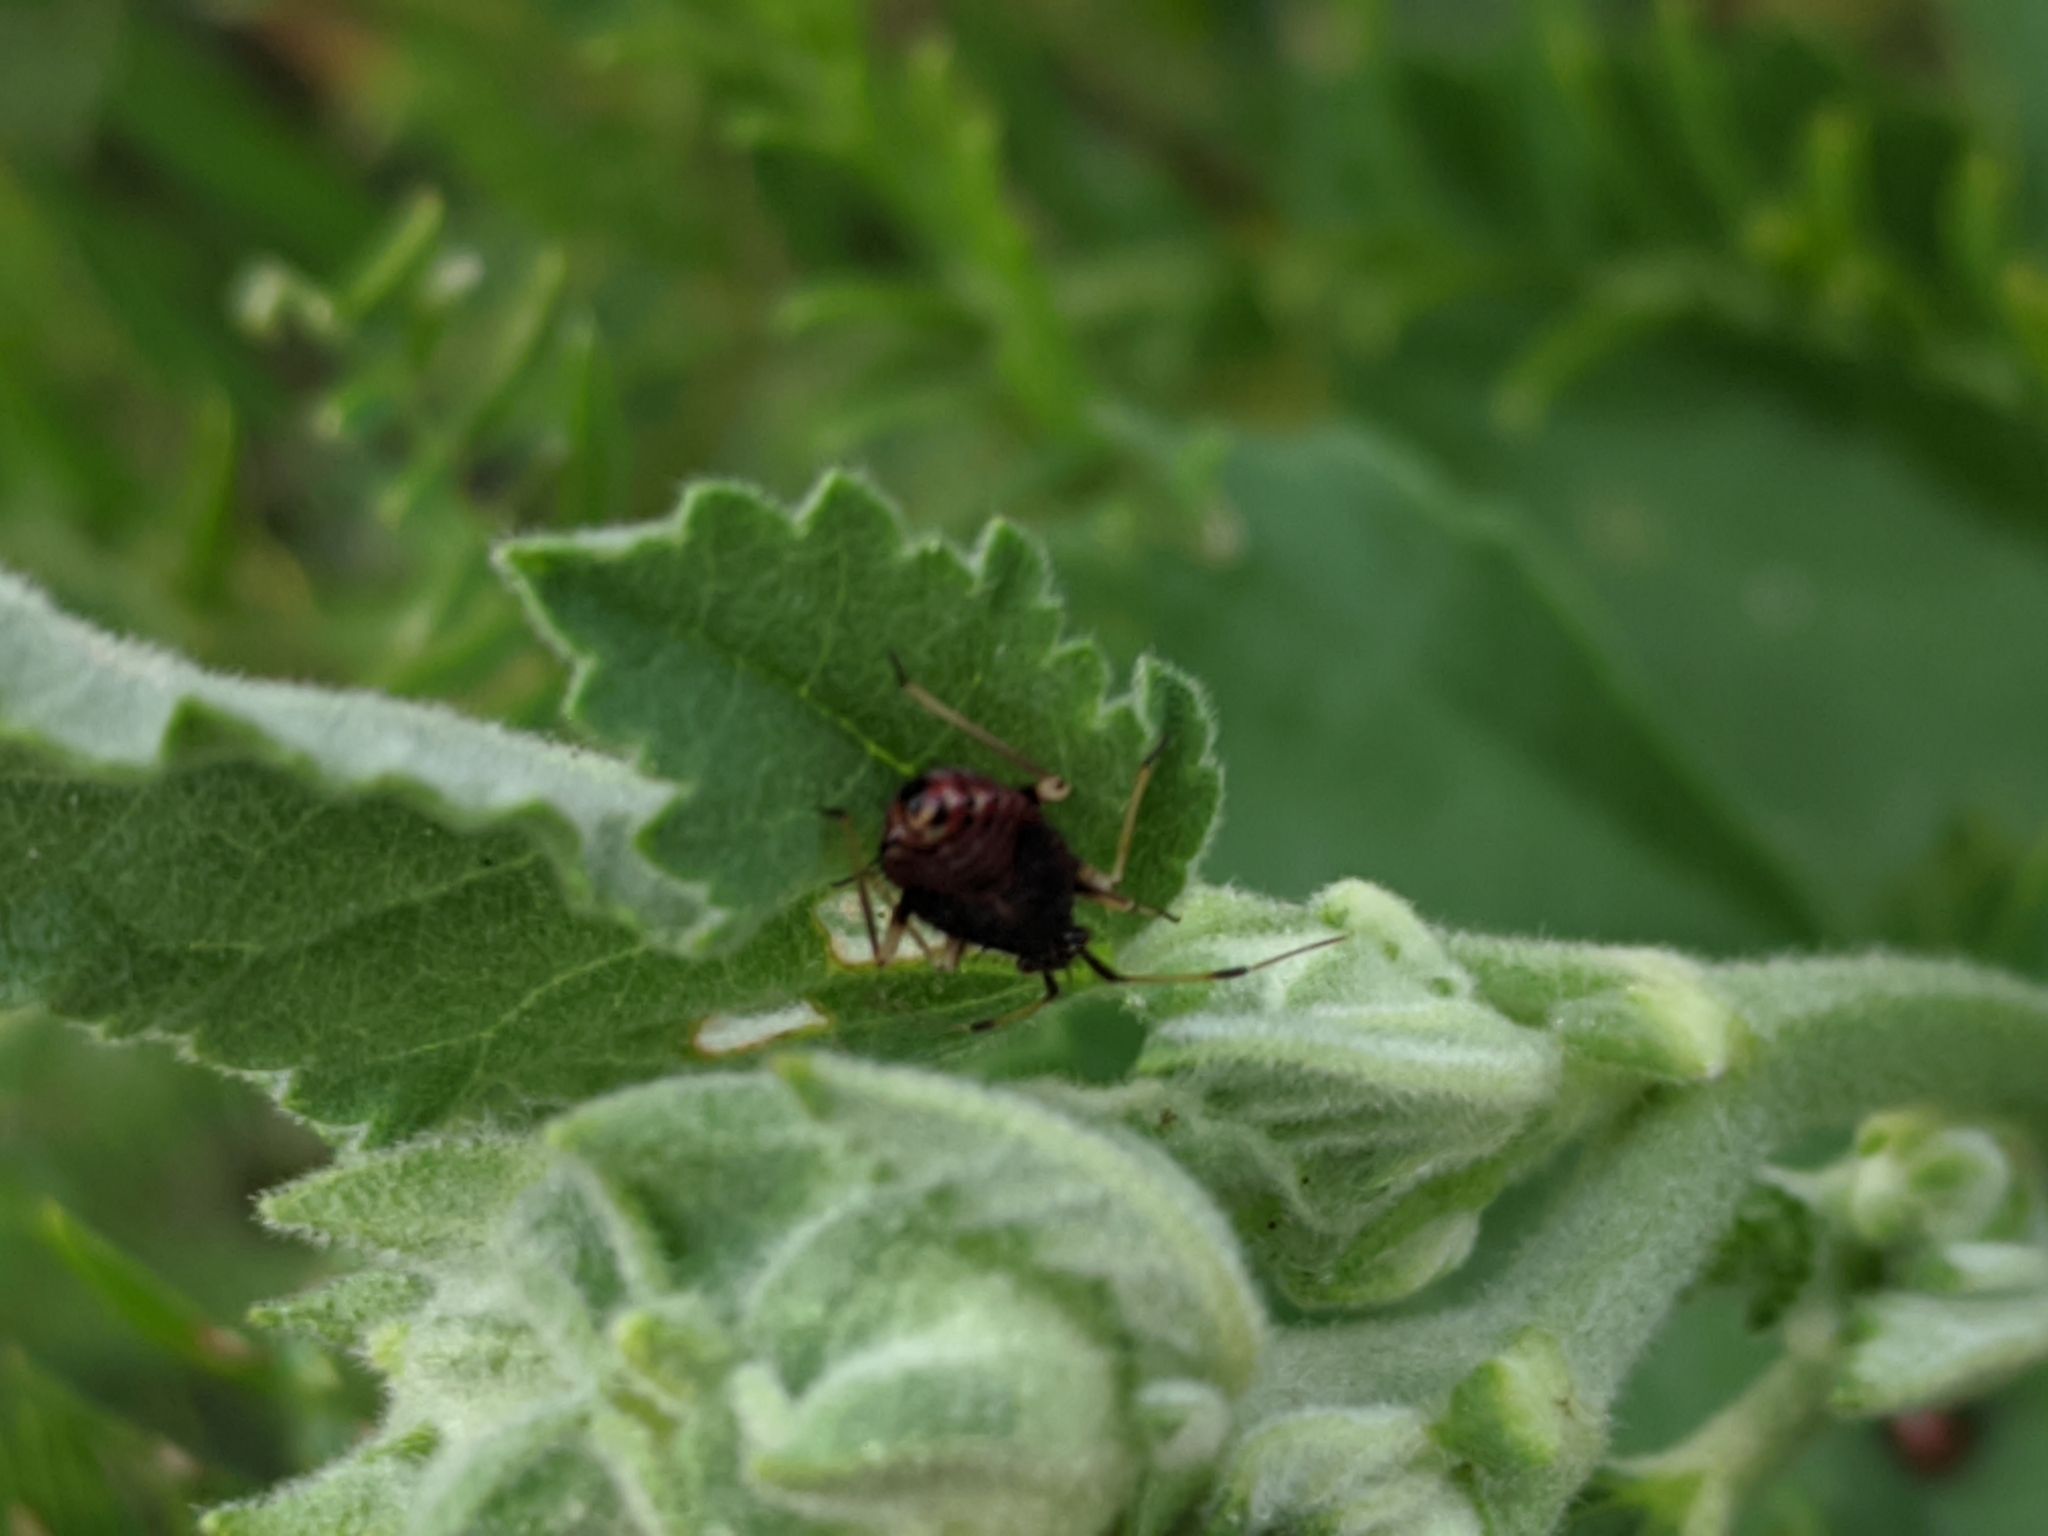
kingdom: Animalia
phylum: Arthropoda
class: Insecta
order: Hemiptera
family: Miridae
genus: Deraeocoris
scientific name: Deraeocoris ruber
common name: Plant bug
